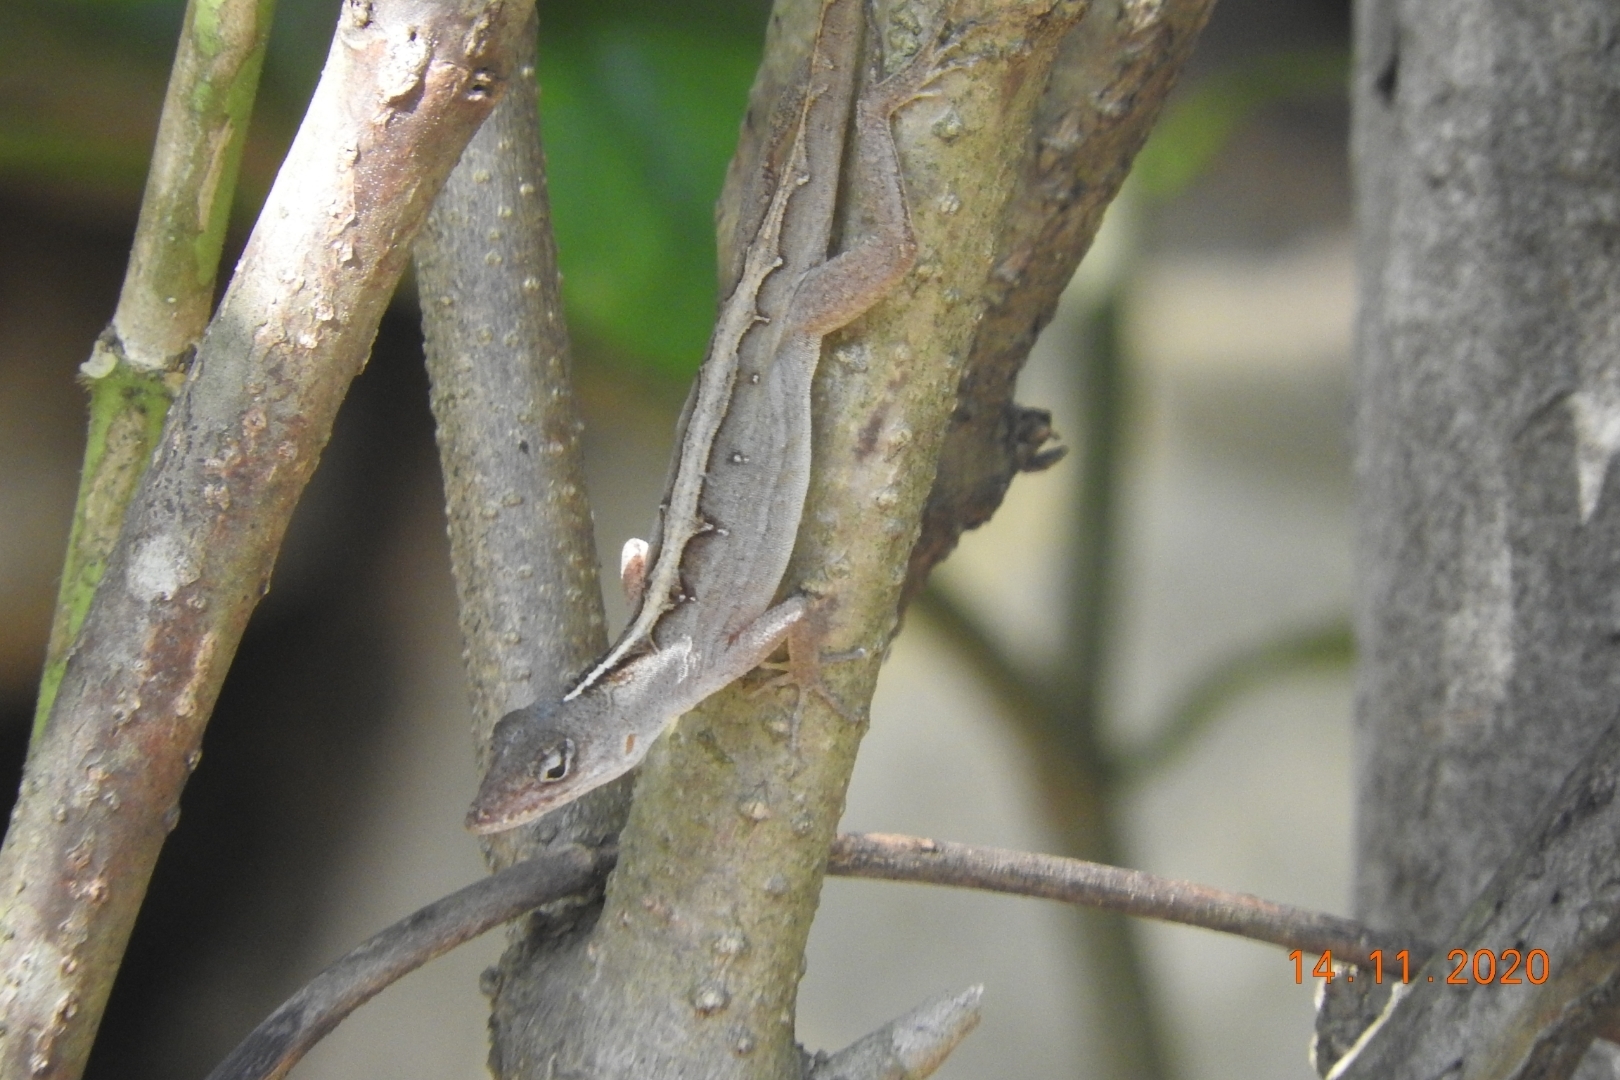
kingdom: Animalia
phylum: Chordata
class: Squamata
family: Dactyloidae
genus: Anolis
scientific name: Anolis sagrei
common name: Brown anole
